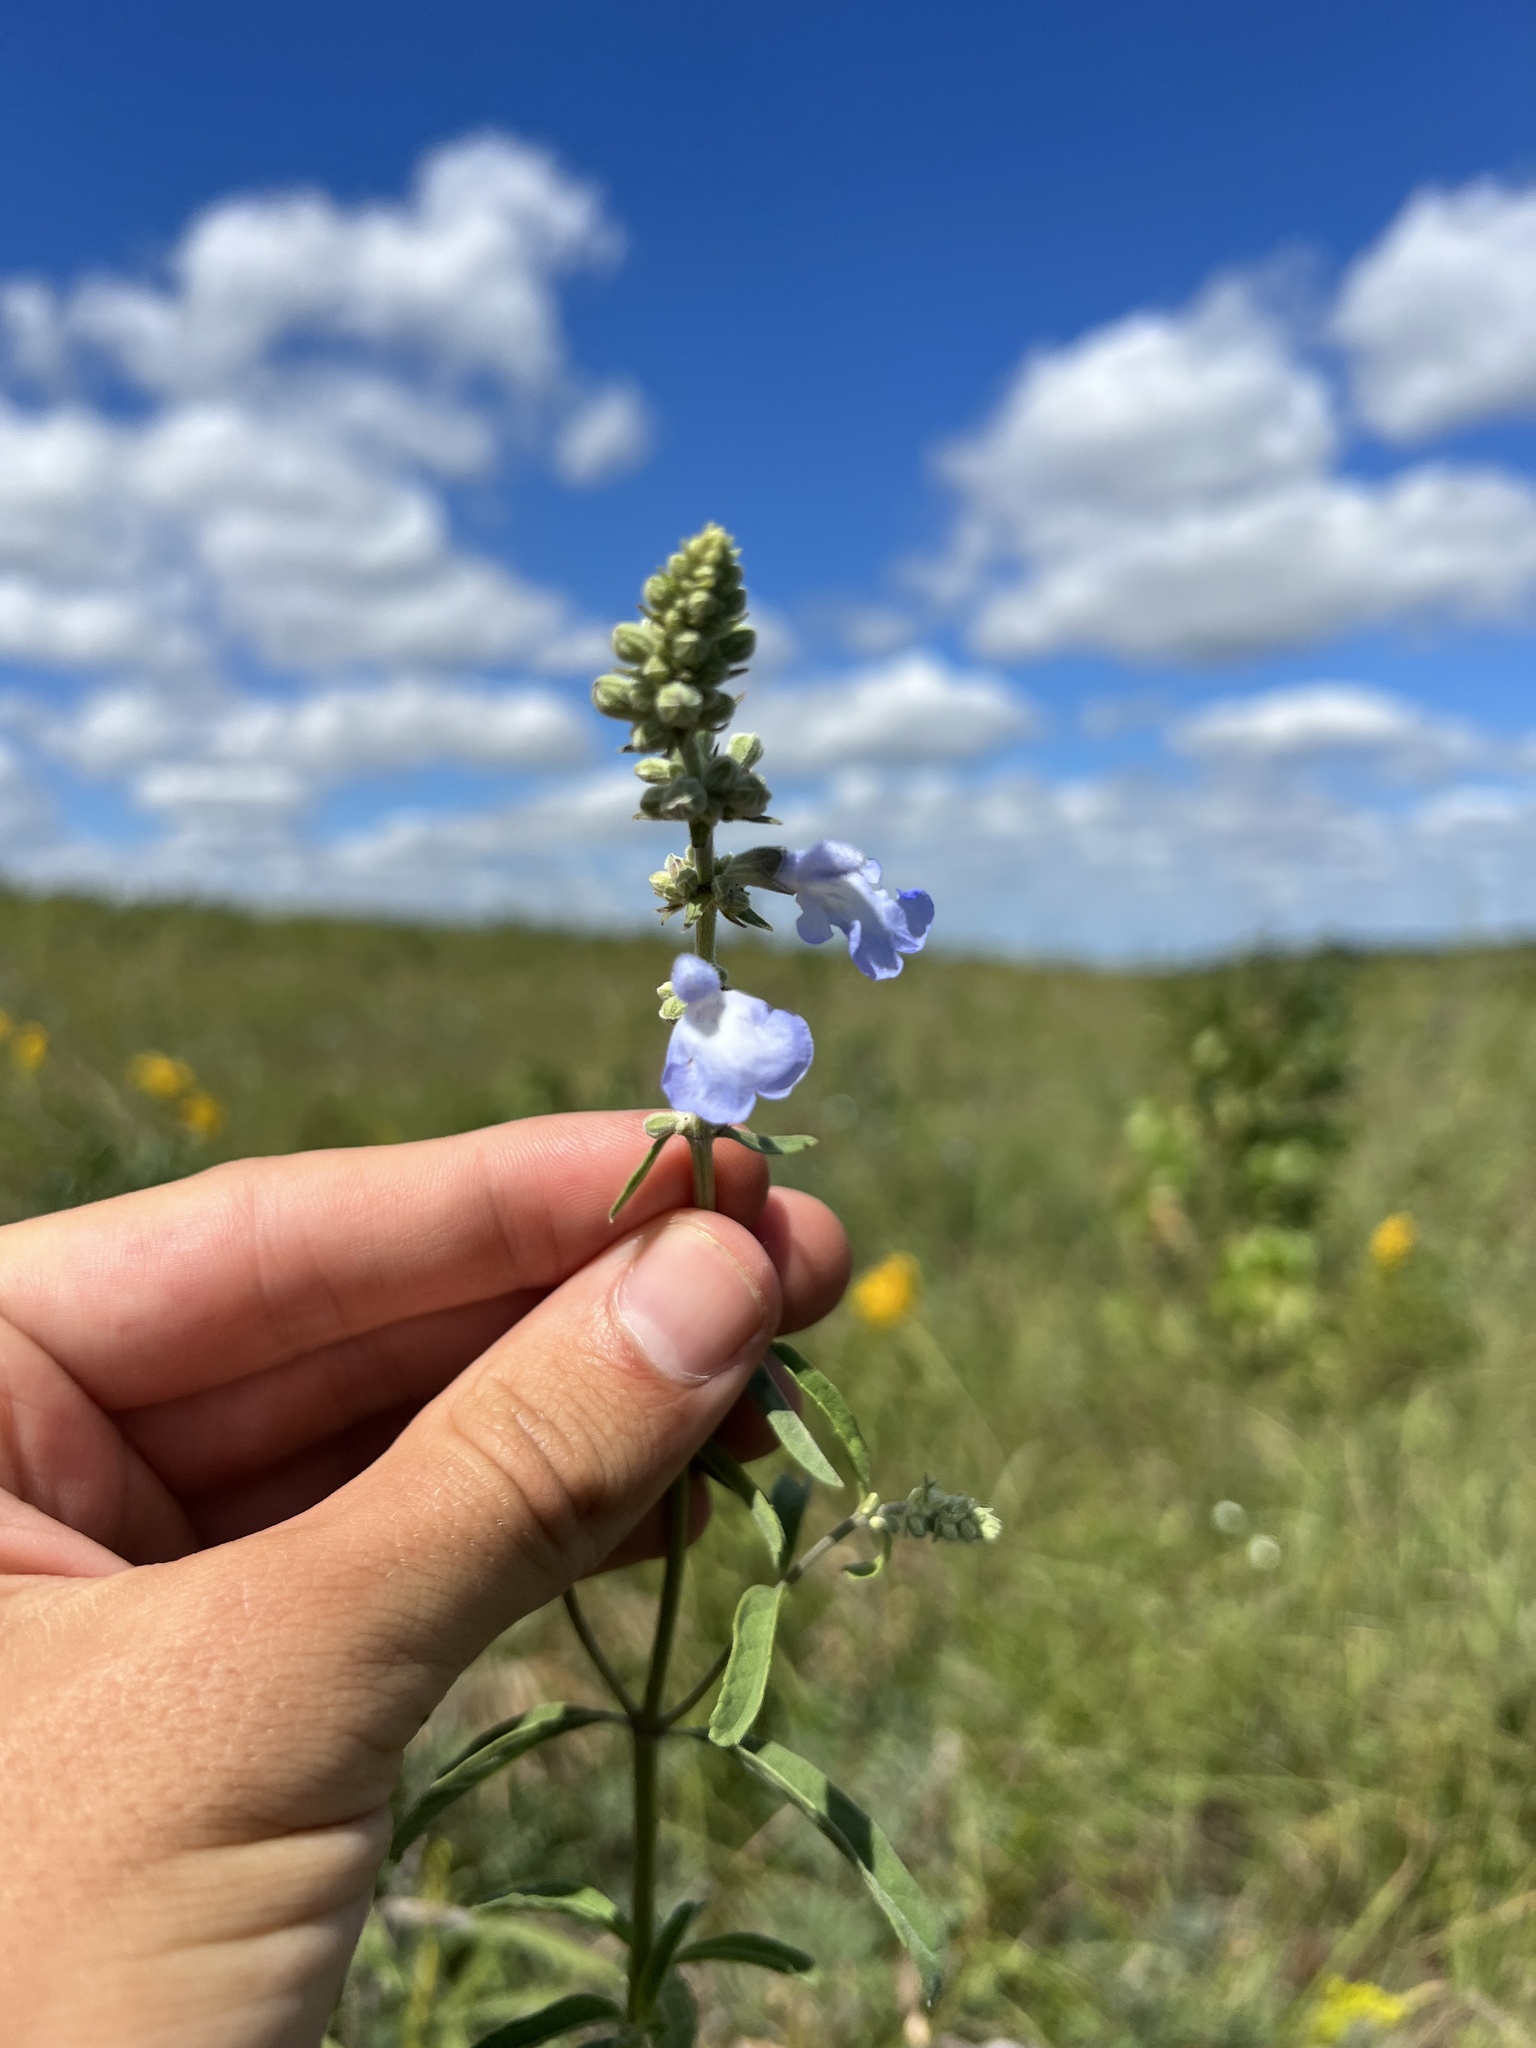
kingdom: Plantae
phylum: Tracheophyta
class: Magnoliopsida
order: Lamiales
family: Lamiaceae
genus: Salvia
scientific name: Salvia azurea
